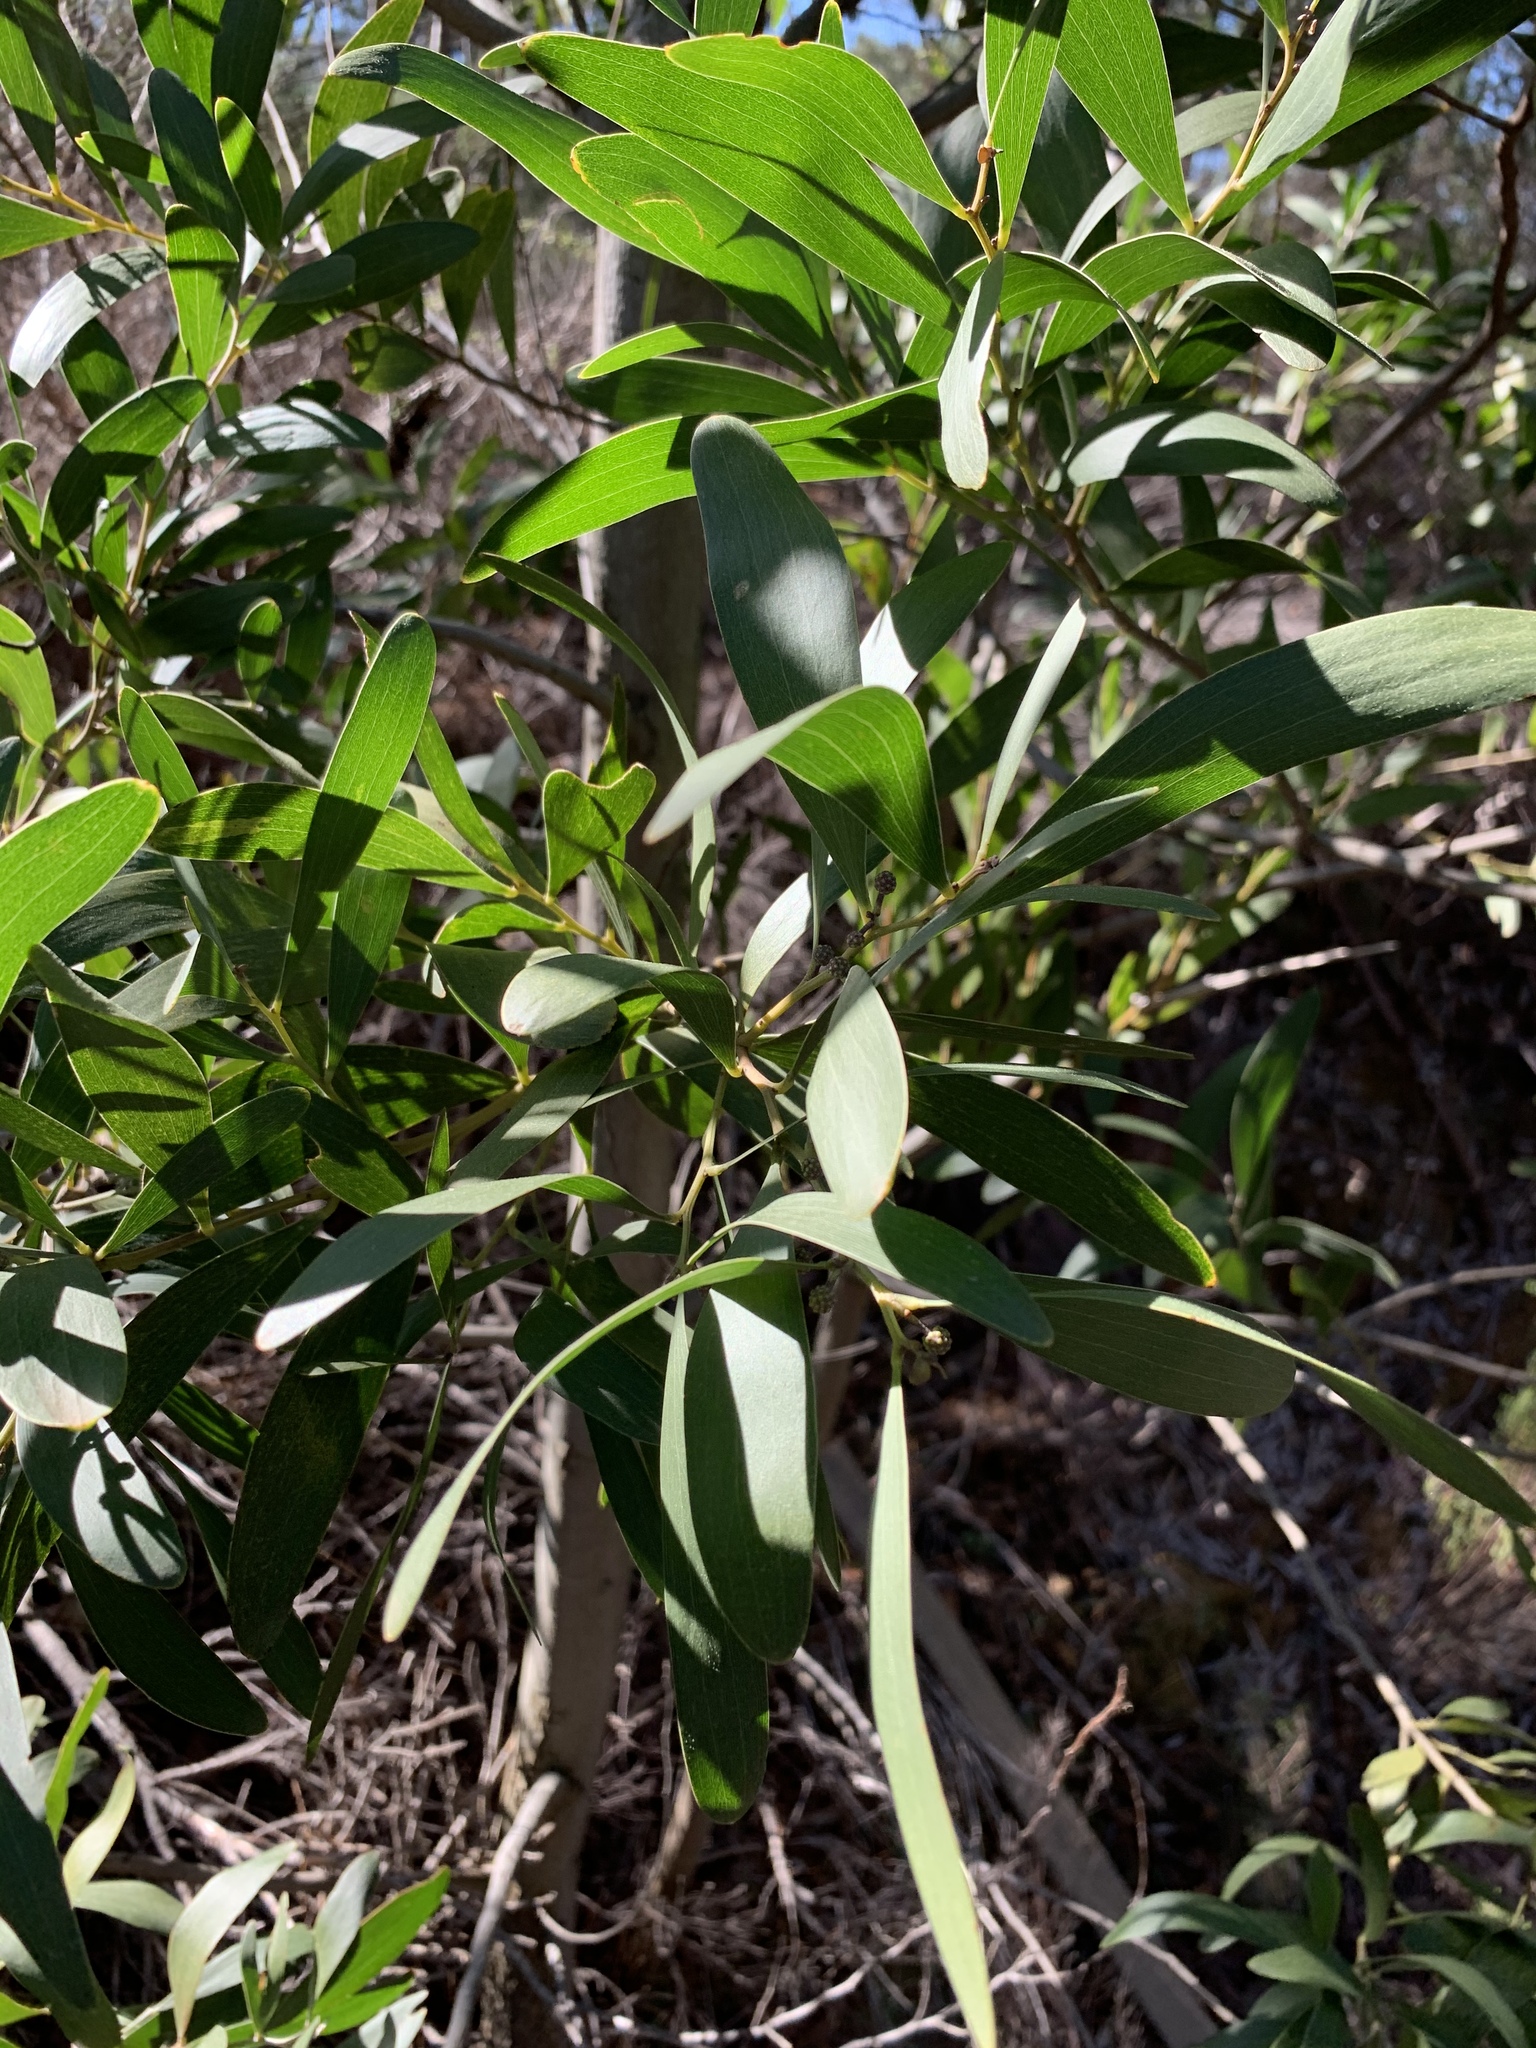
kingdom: Plantae
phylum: Tracheophyta
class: Magnoliopsida
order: Fabales
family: Fabaceae
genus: Acacia
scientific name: Acacia melanoxylon
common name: Blackwood
